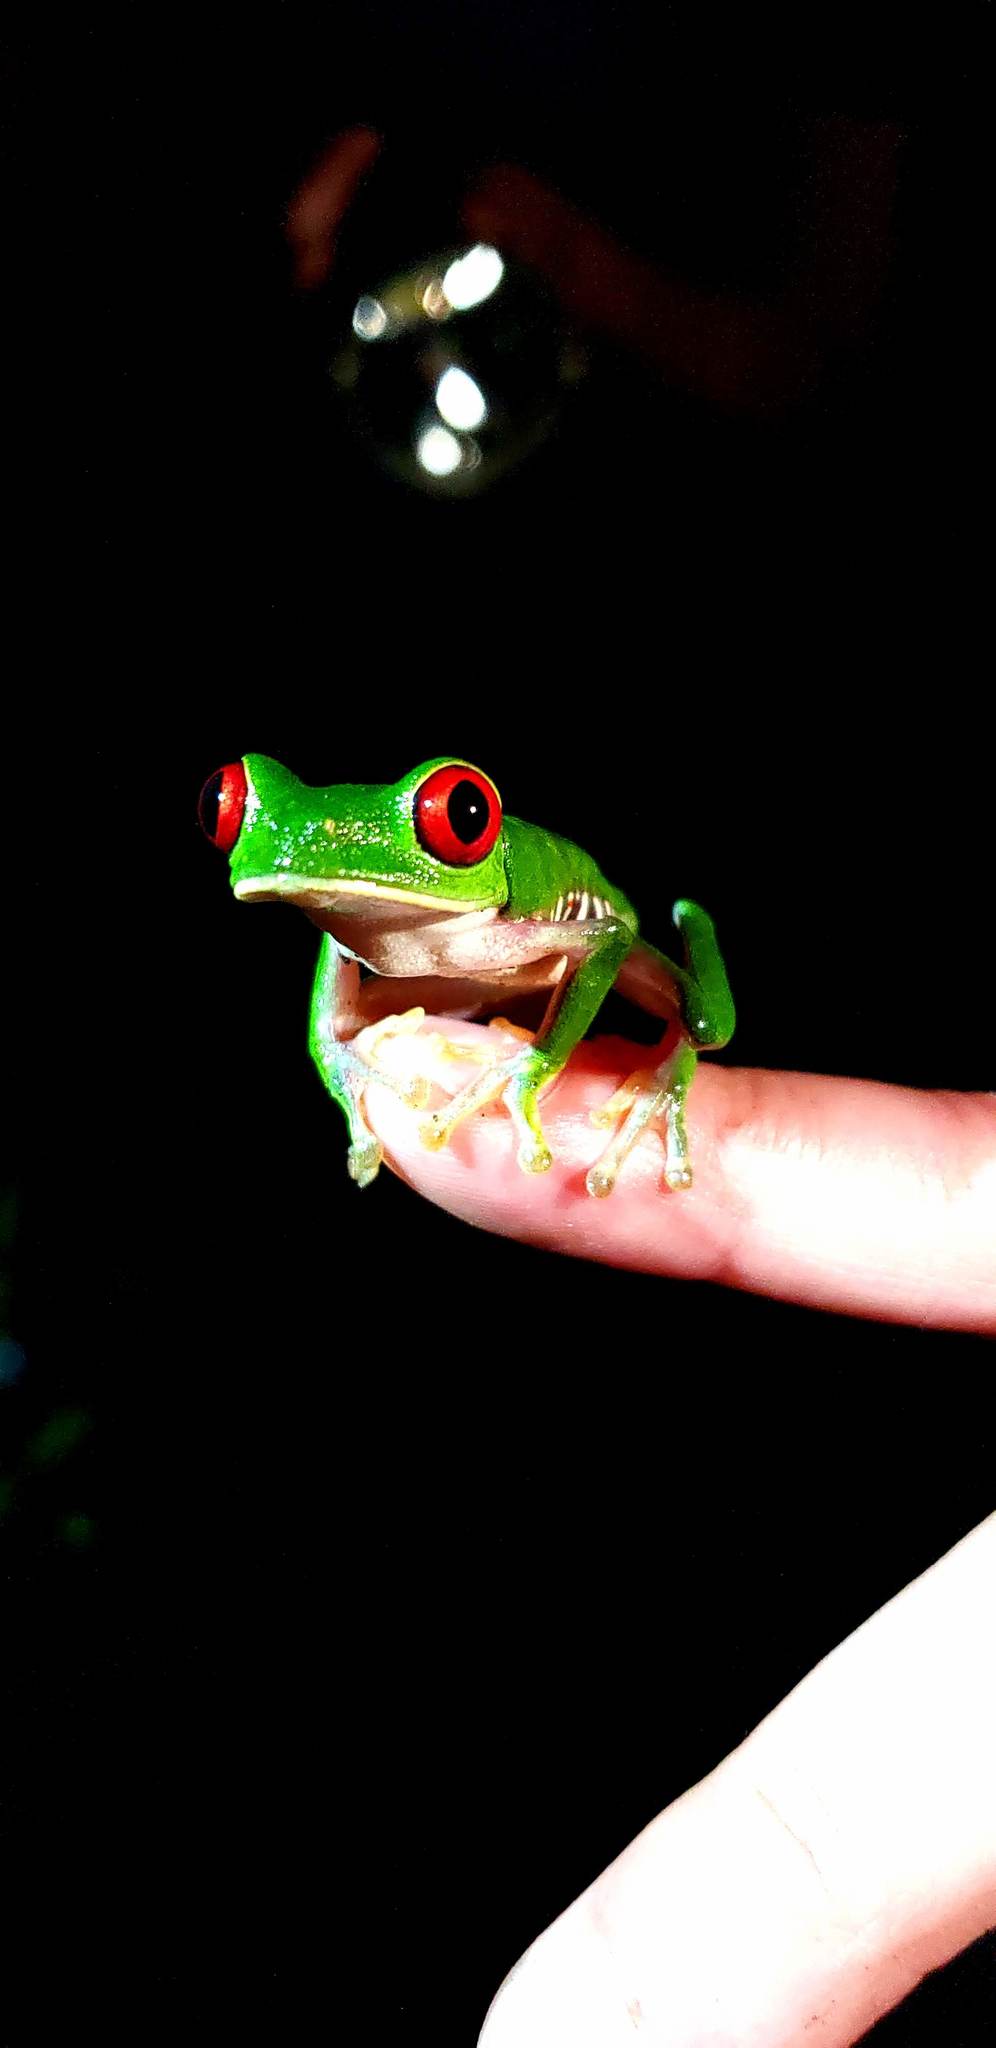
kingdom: Animalia
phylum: Chordata
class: Amphibia
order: Anura
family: Phyllomedusidae
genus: Agalychnis
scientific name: Agalychnis callidryas
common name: Red-eyed treefrog
